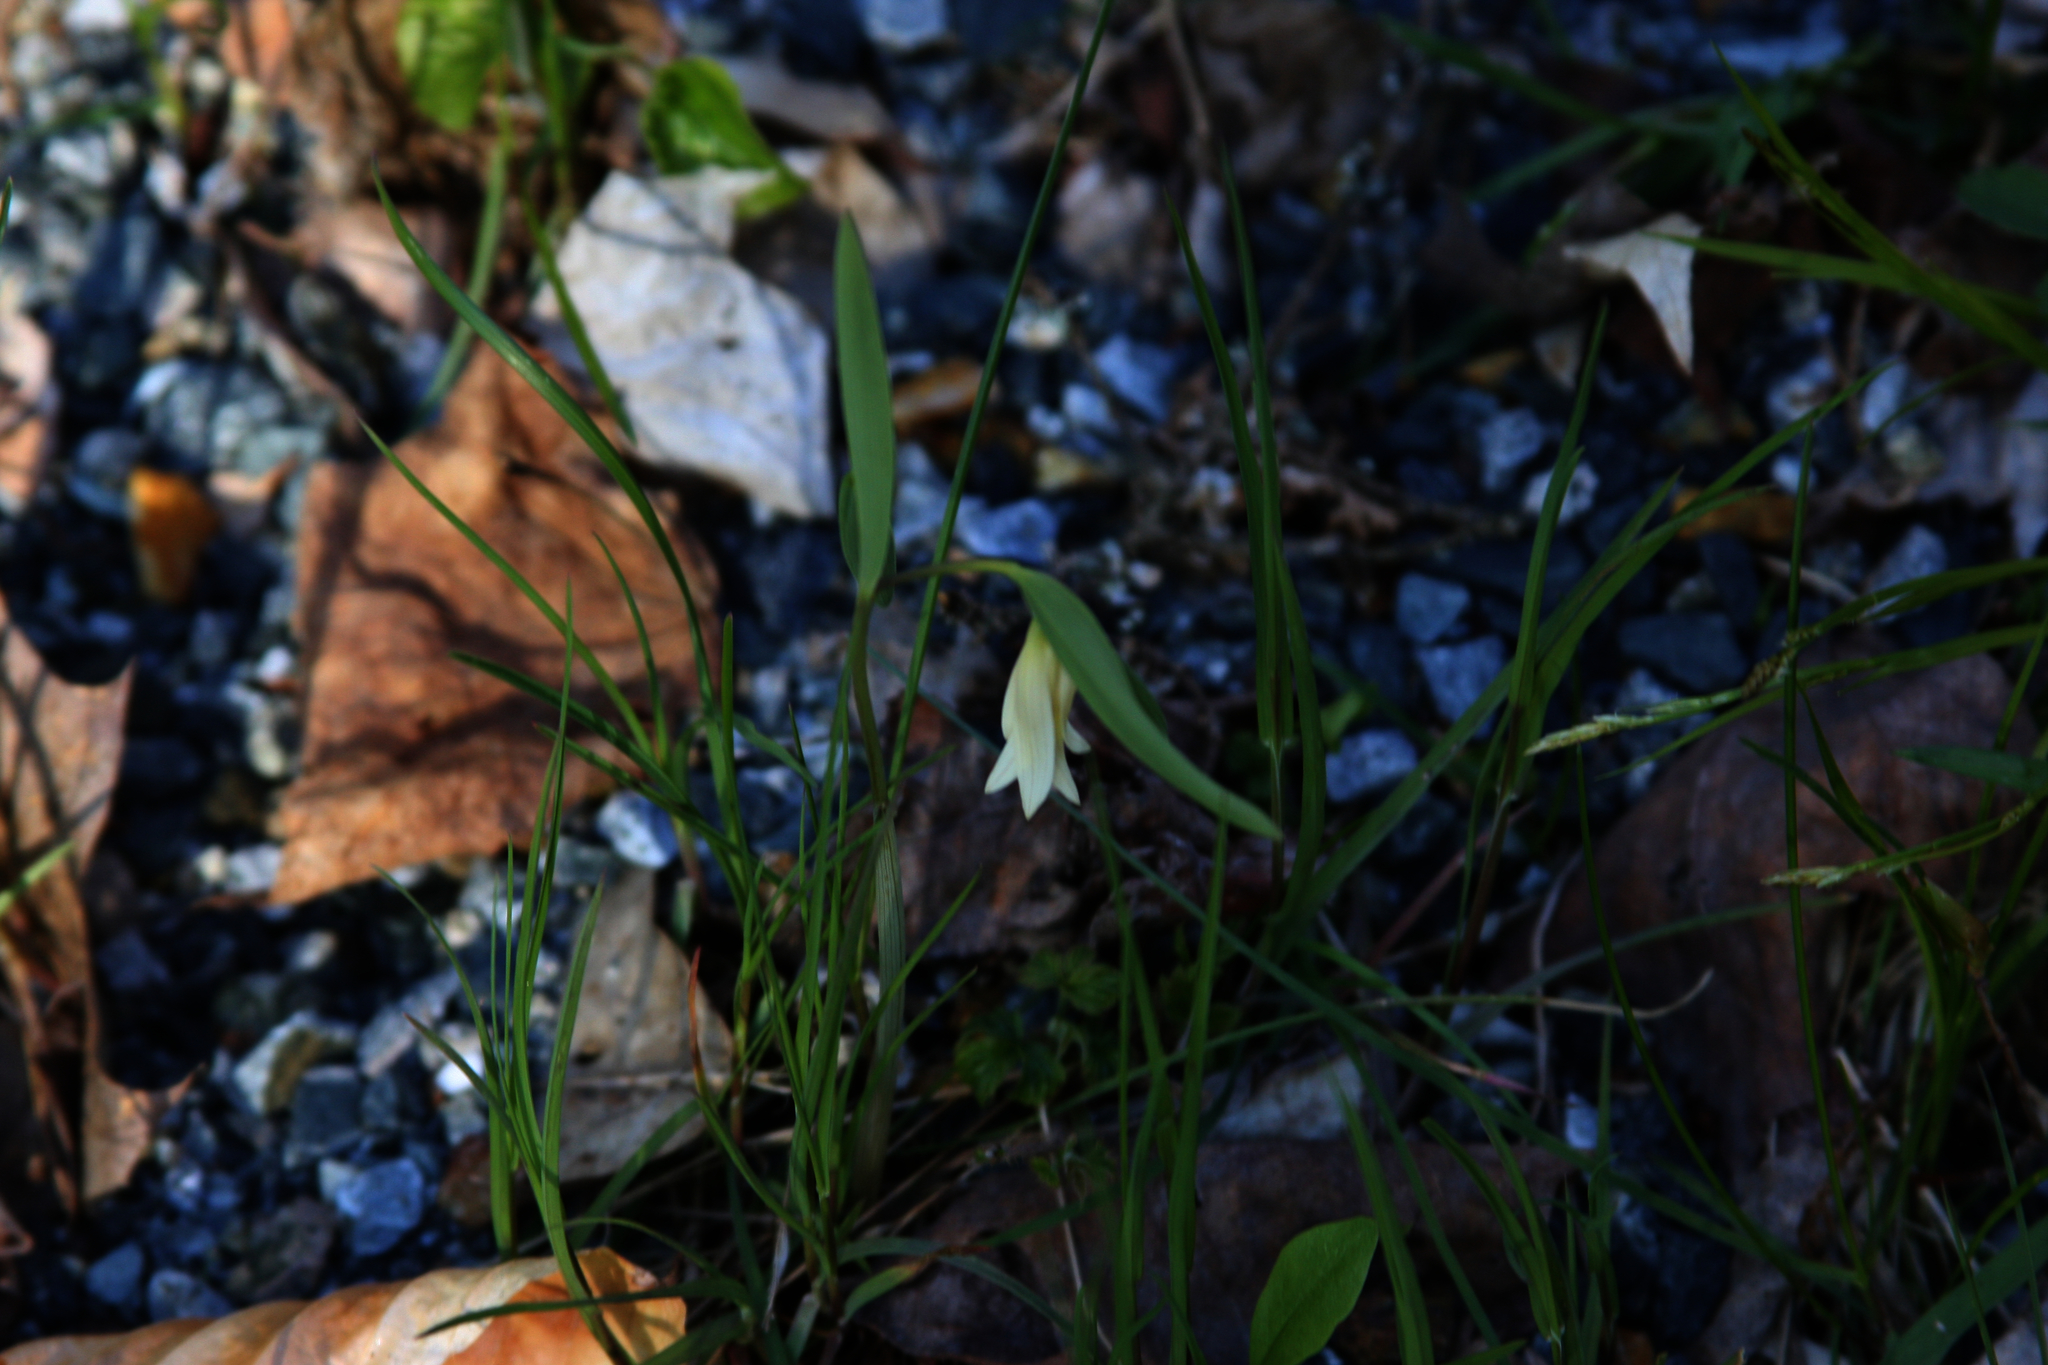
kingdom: Plantae
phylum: Tracheophyta
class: Liliopsida
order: Liliales
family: Colchicaceae
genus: Uvularia
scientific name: Uvularia sessilifolia
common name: Straw-lily
